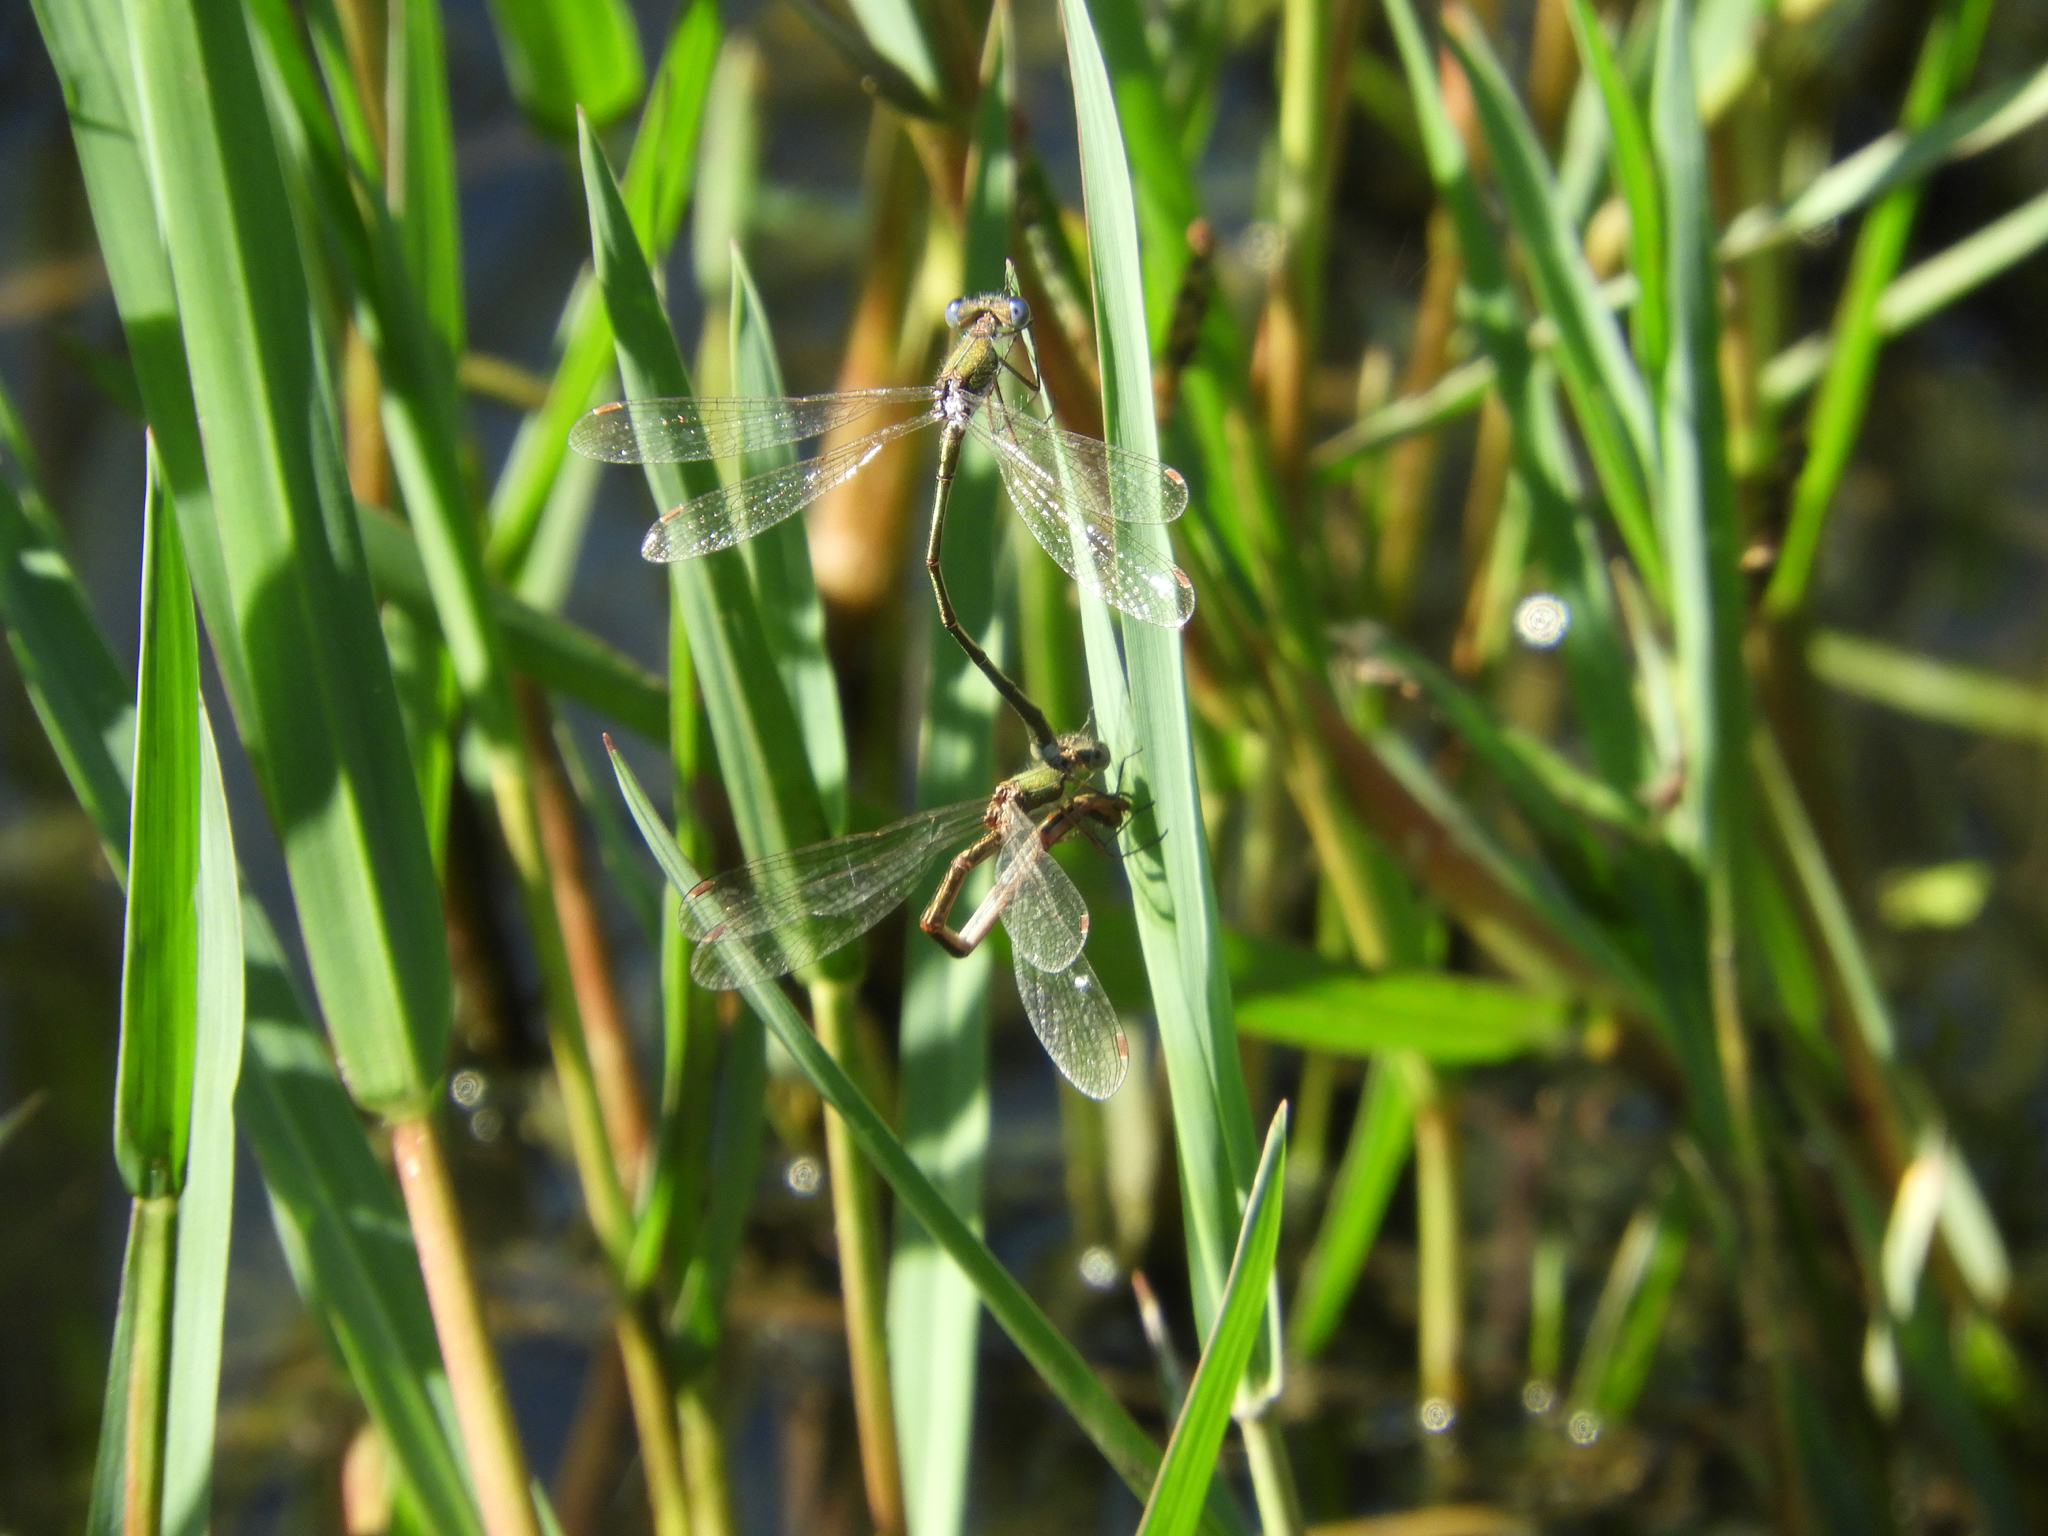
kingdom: Animalia
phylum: Arthropoda
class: Insecta
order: Odonata
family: Lestidae
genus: Lestes
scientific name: Lestes virens
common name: Small emerald spreadwing
